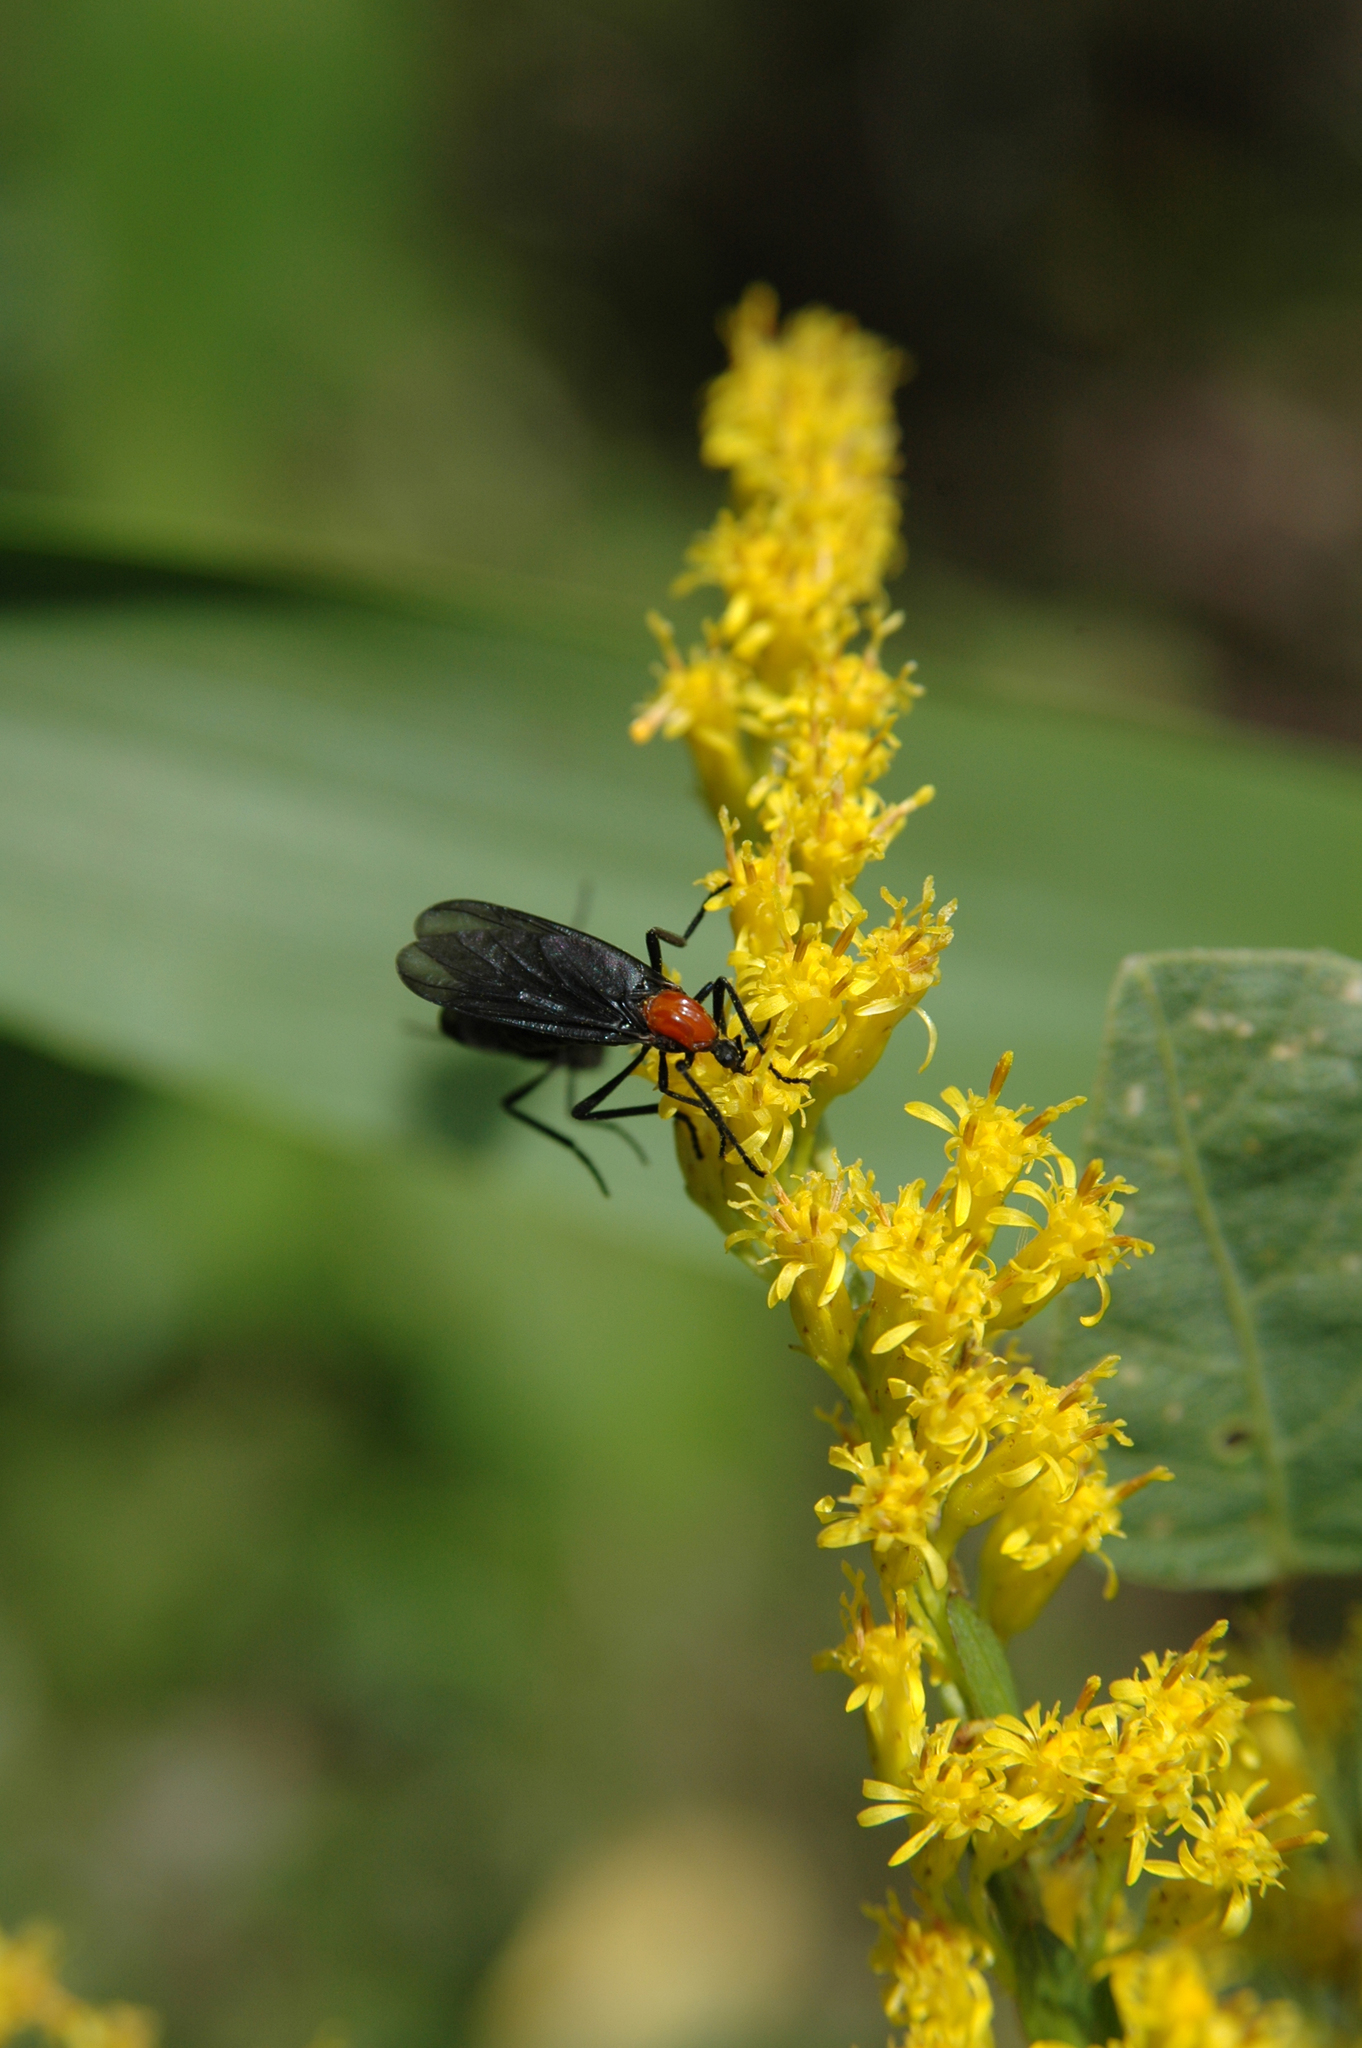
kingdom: Animalia
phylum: Arthropoda
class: Insecta
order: Diptera
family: Bibionidae
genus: Plecia
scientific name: Plecia nearctica
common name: March fly
